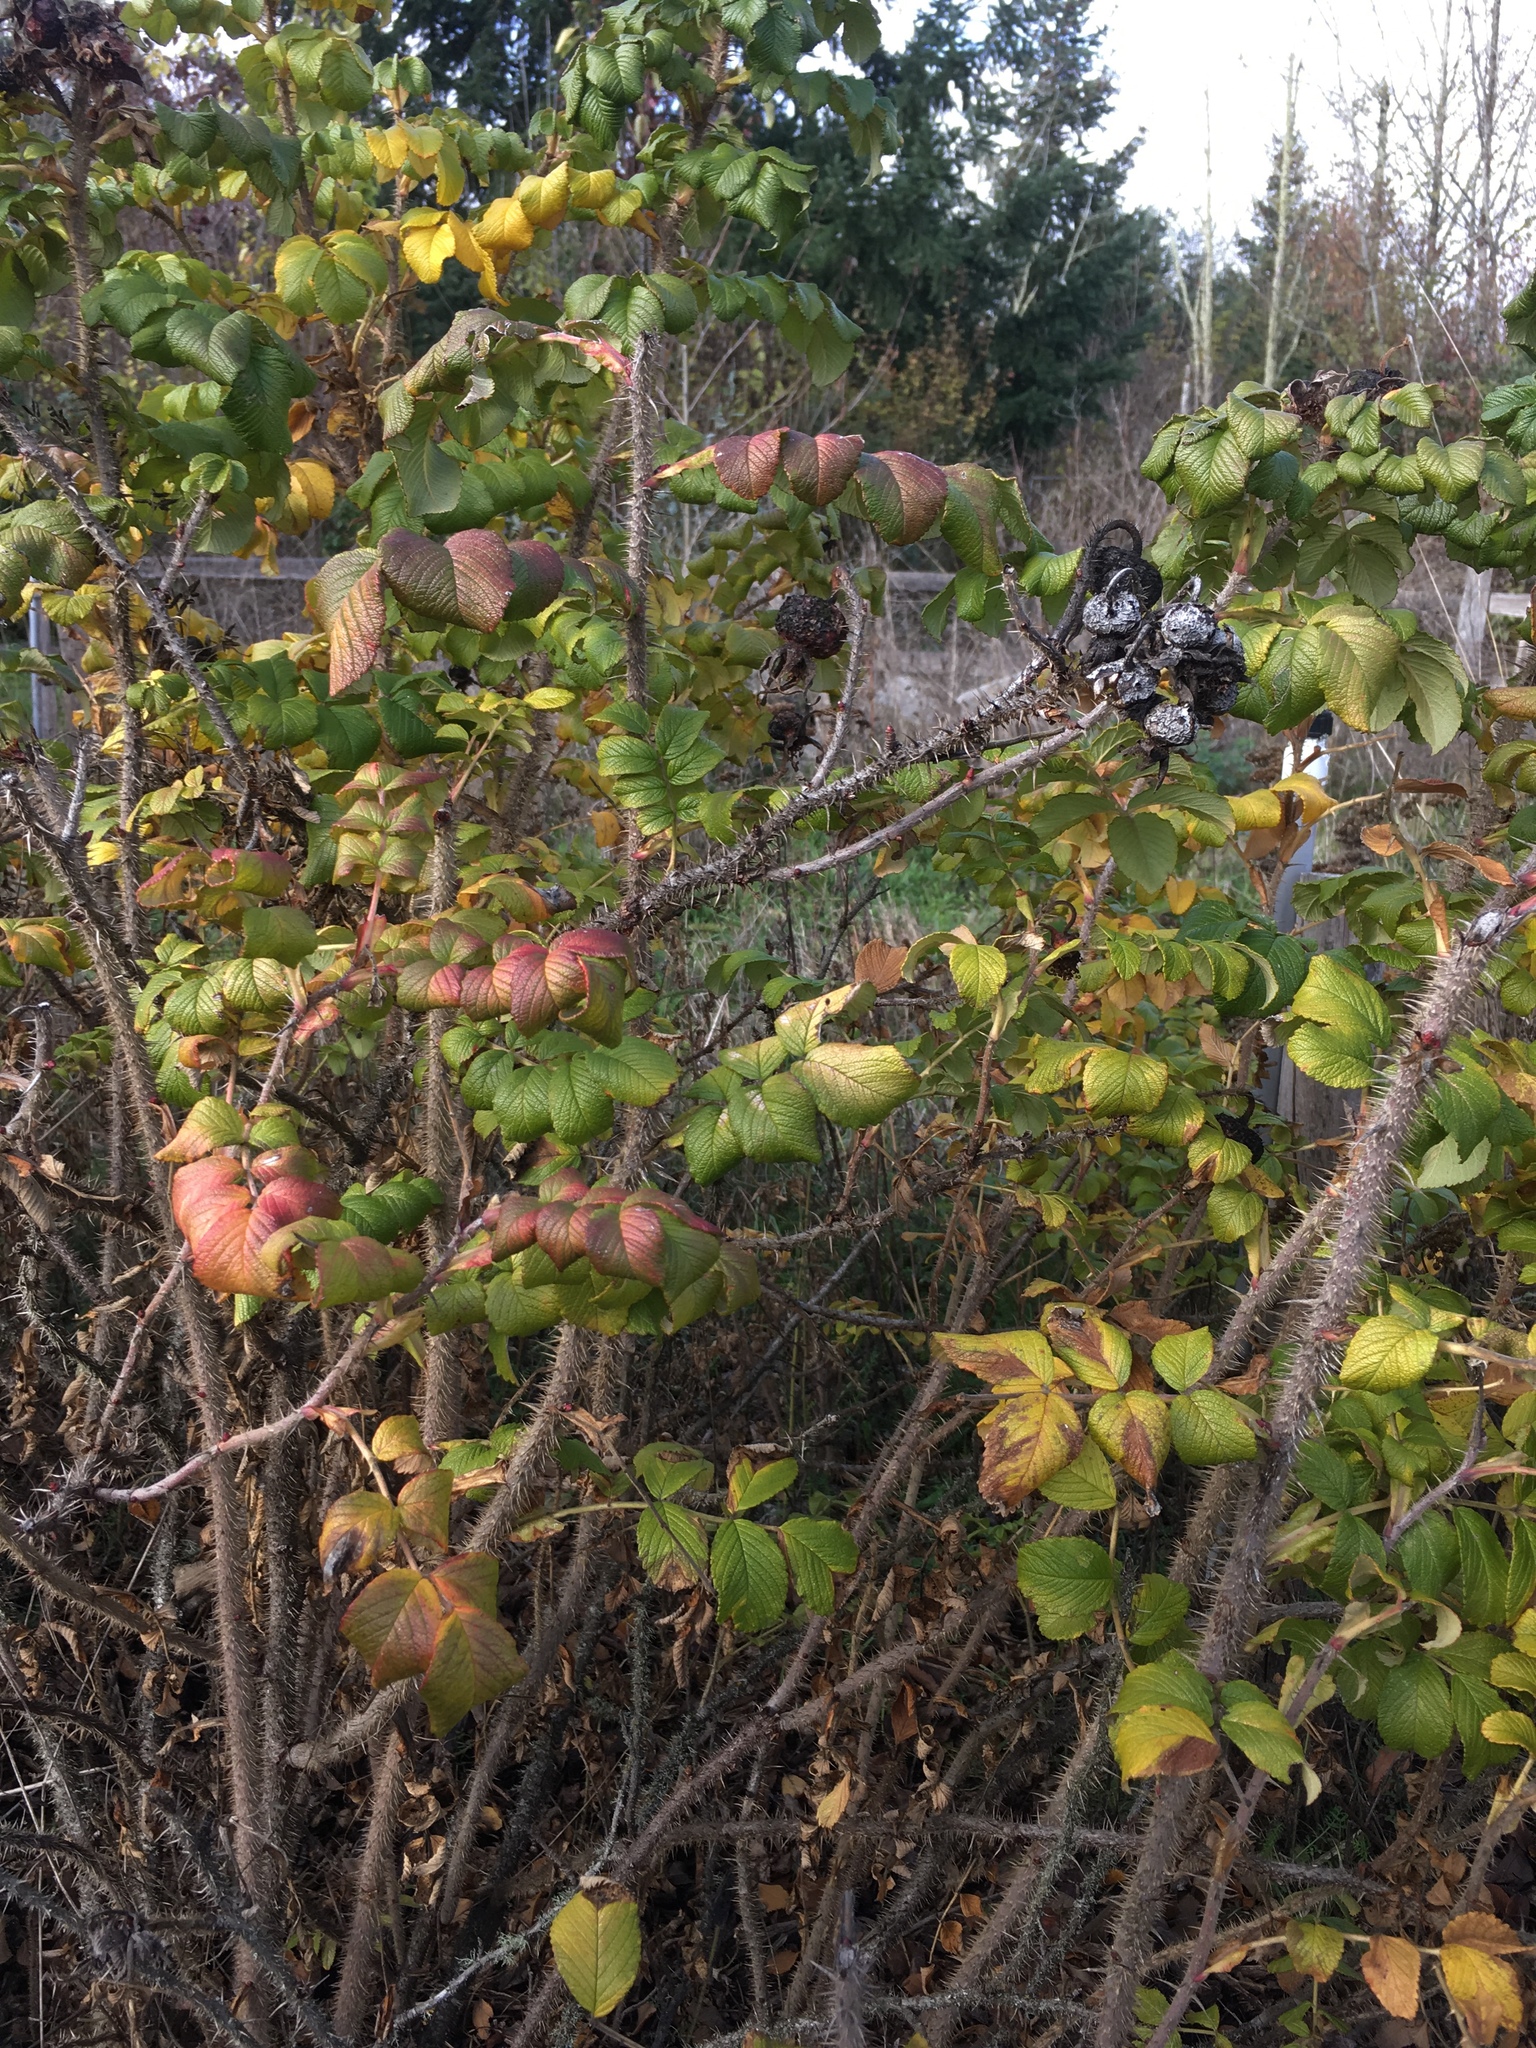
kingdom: Plantae
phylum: Tracheophyta
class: Magnoliopsida
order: Rosales
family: Rosaceae
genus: Rosa
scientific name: Rosa rugosa
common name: Japanese rose
